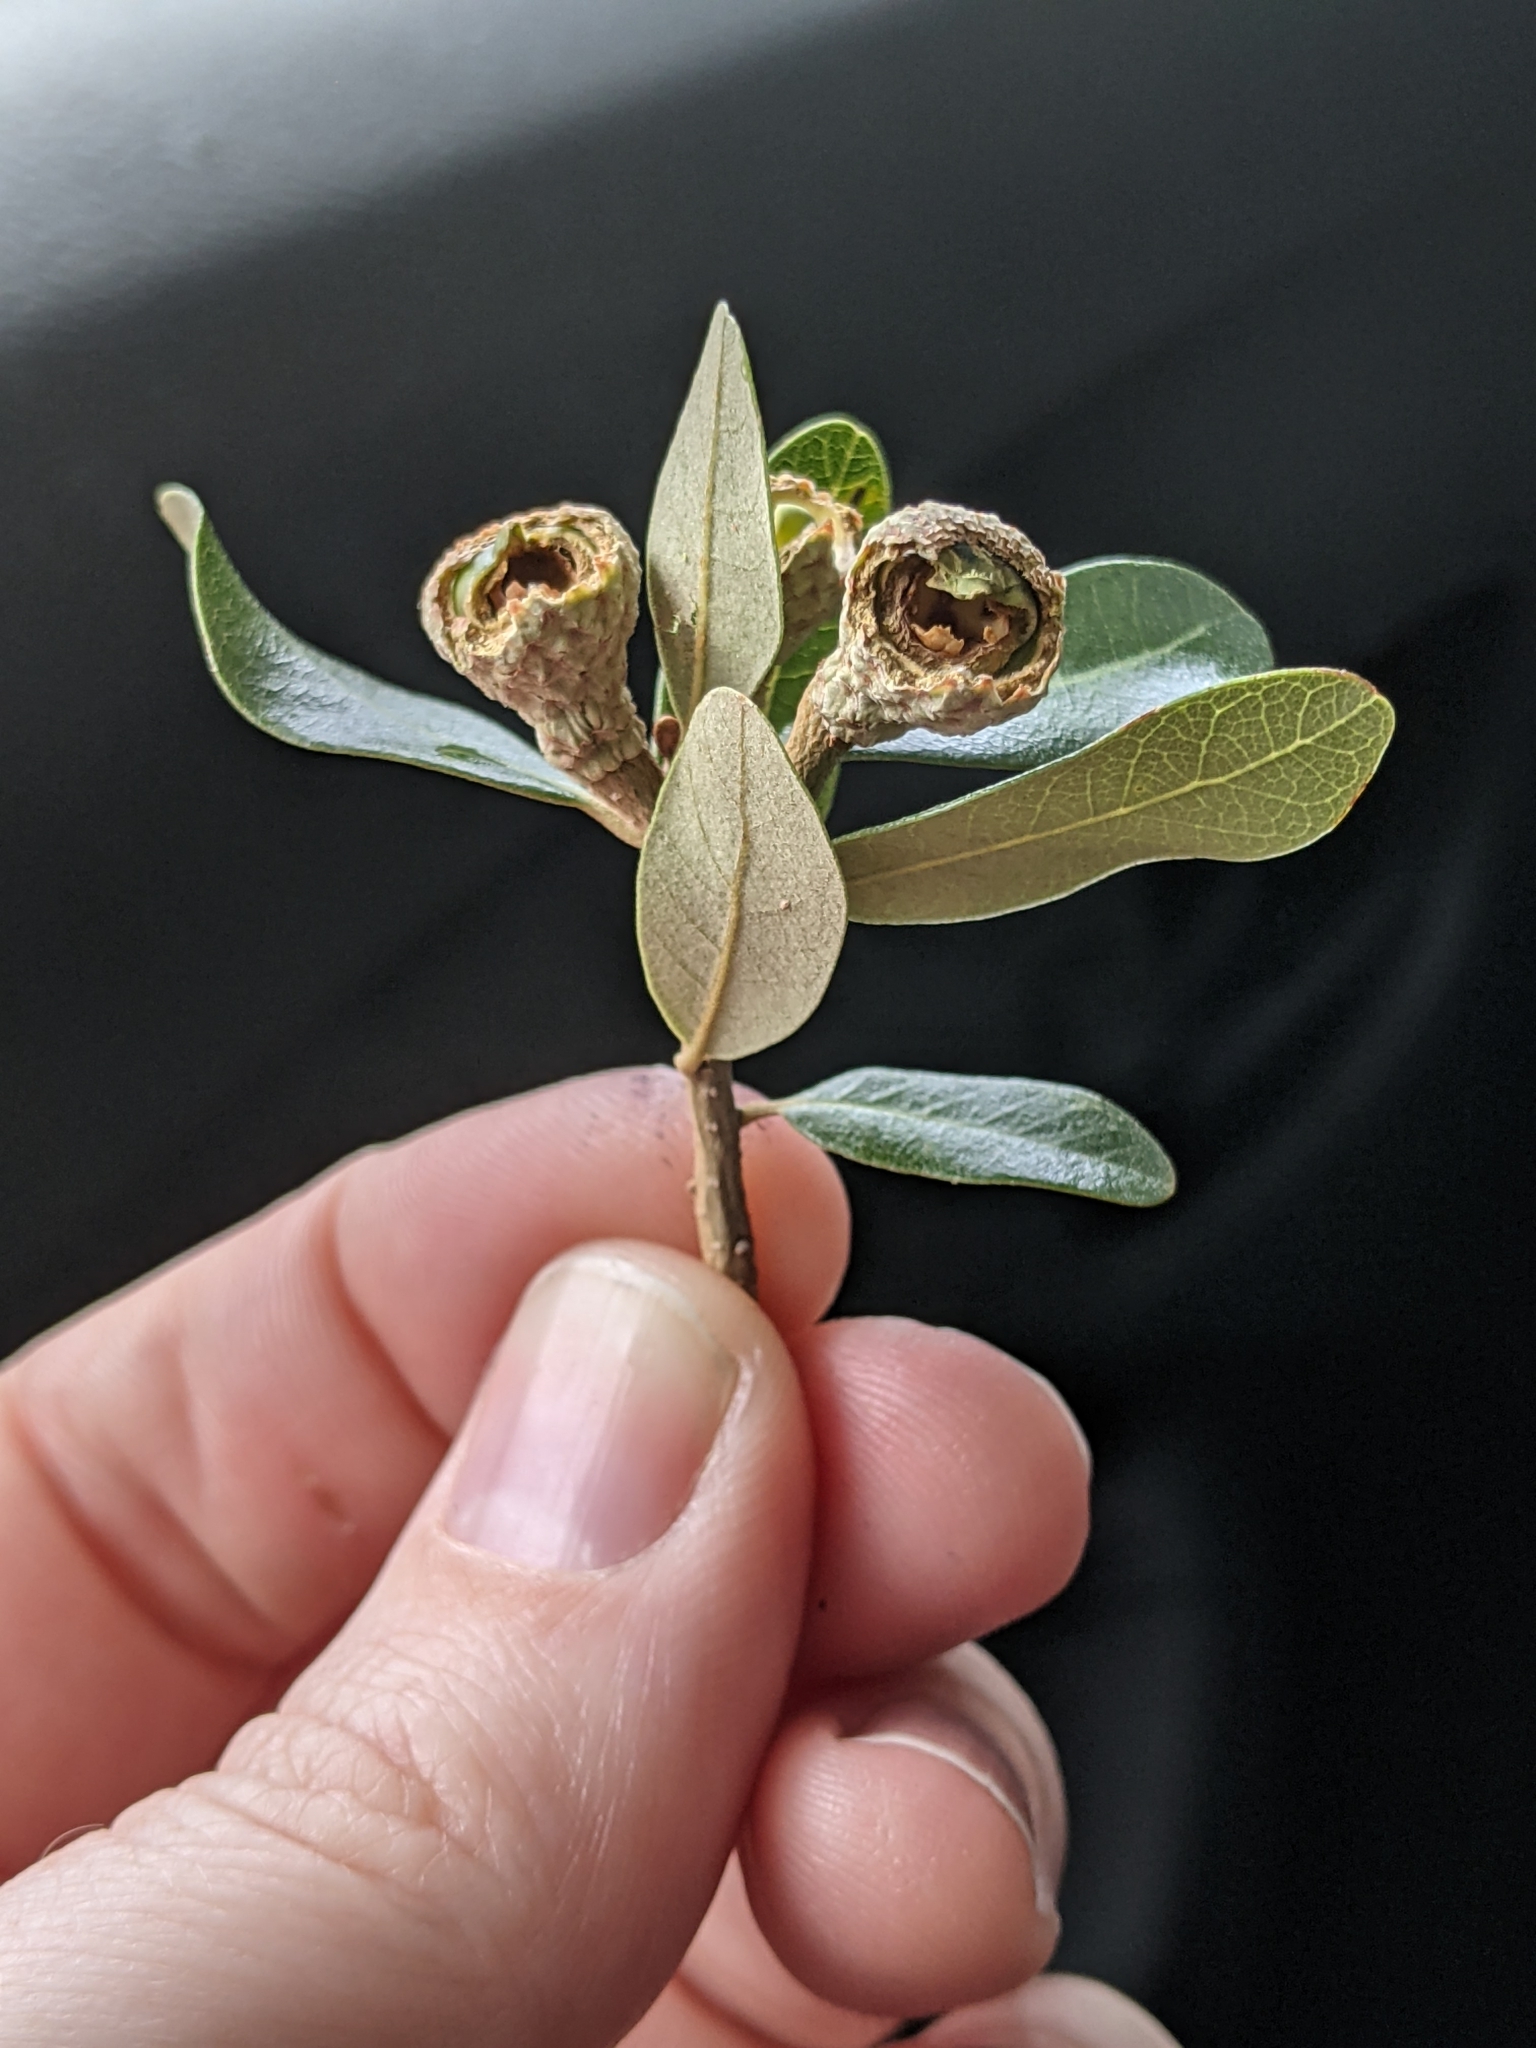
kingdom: Plantae
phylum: Tracheophyta
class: Magnoliopsida
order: Fagales
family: Fagaceae
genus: Quercus
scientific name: Quercus virginiana
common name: Southern live oak
